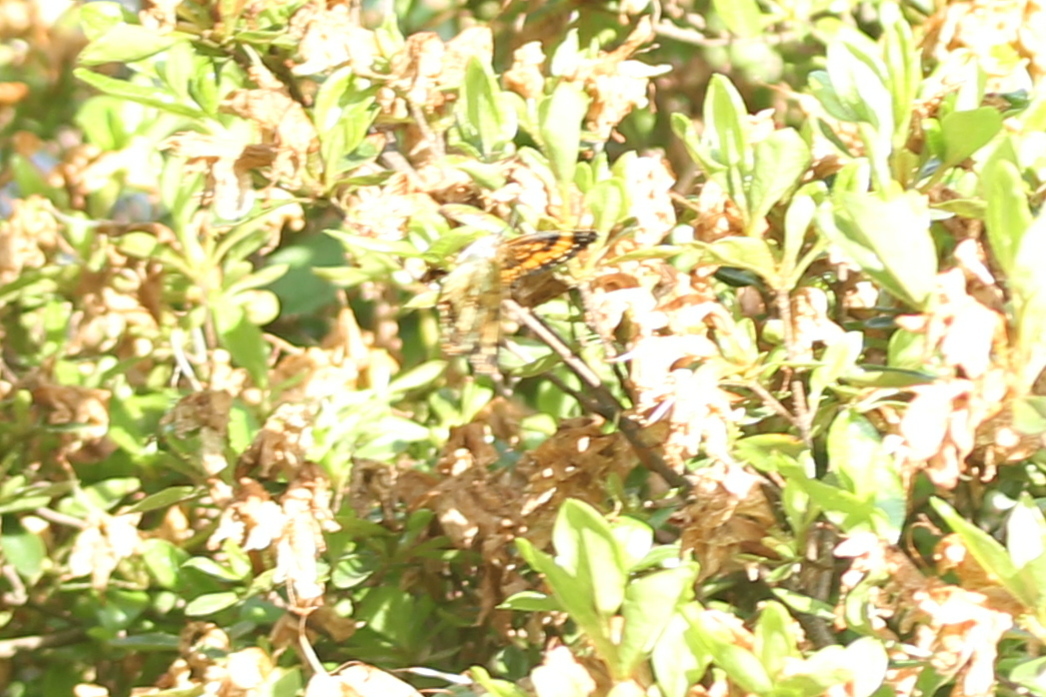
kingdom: Animalia
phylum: Arthropoda
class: Insecta
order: Lepidoptera
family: Nymphalidae
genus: Chlosyne
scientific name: Chlosyne nycteis
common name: Silvery checkerspot
